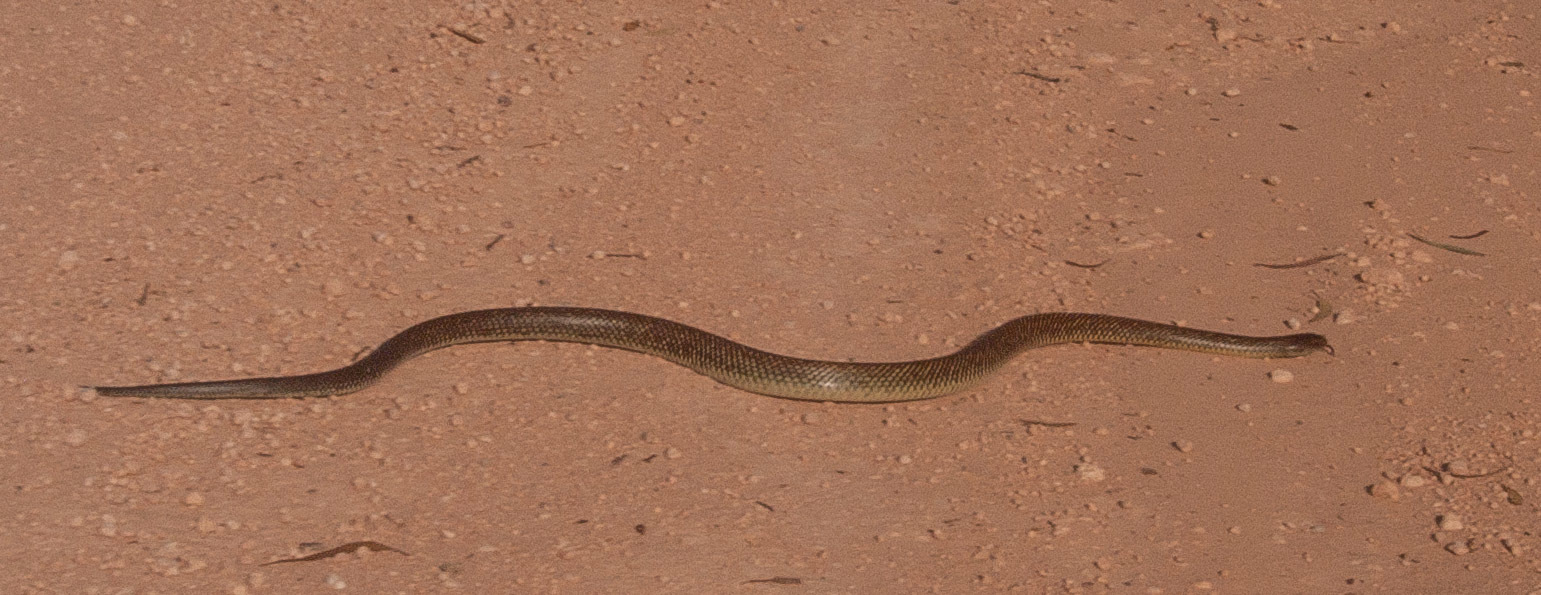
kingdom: Animalia
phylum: Chordata
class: Squamata
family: Elapidae
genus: Pseudechis
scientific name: Pseudechis australis
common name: King brown snake
